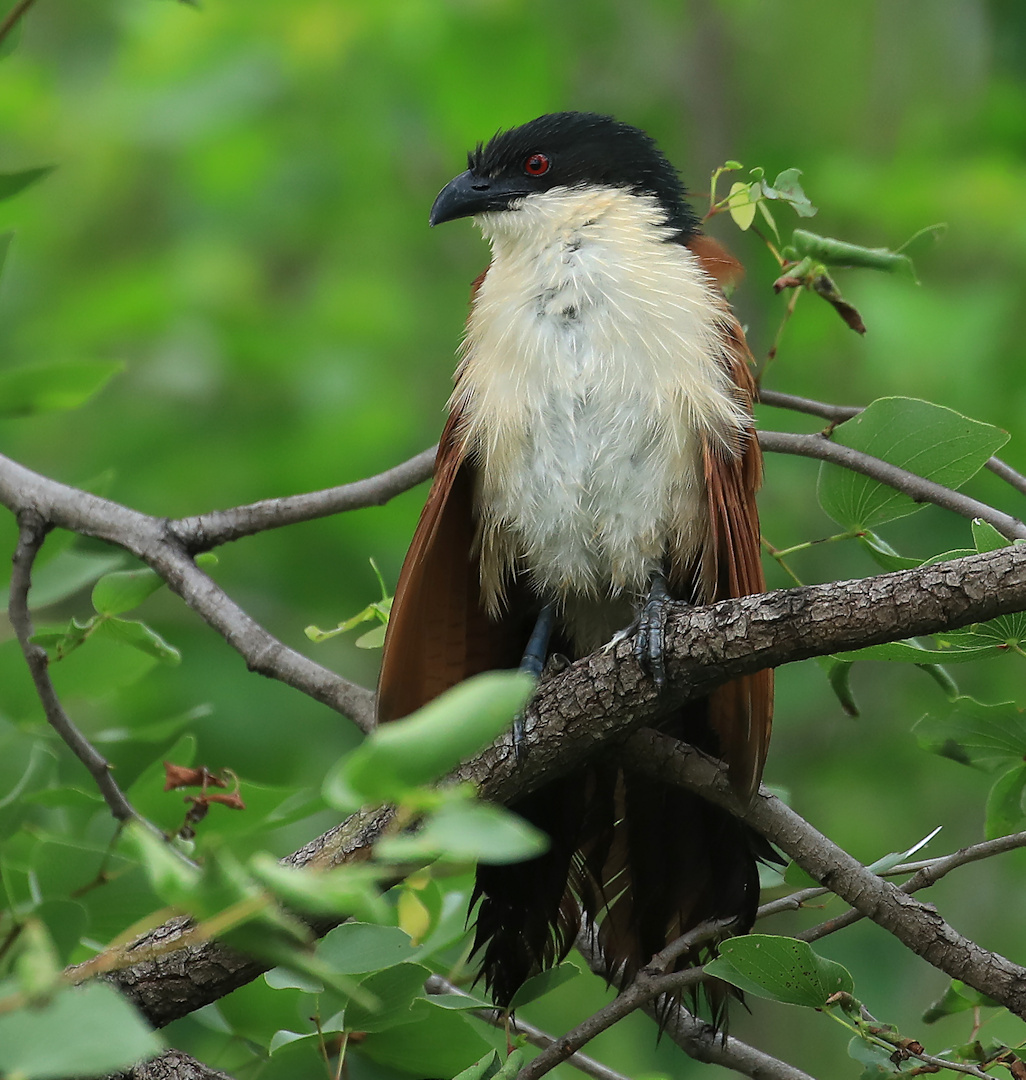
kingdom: Animalia
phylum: Chordata
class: Aves
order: Cuculiformes
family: Cuculidae
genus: Centropus
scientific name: Centropus superciliosus
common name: White-browed coucal
